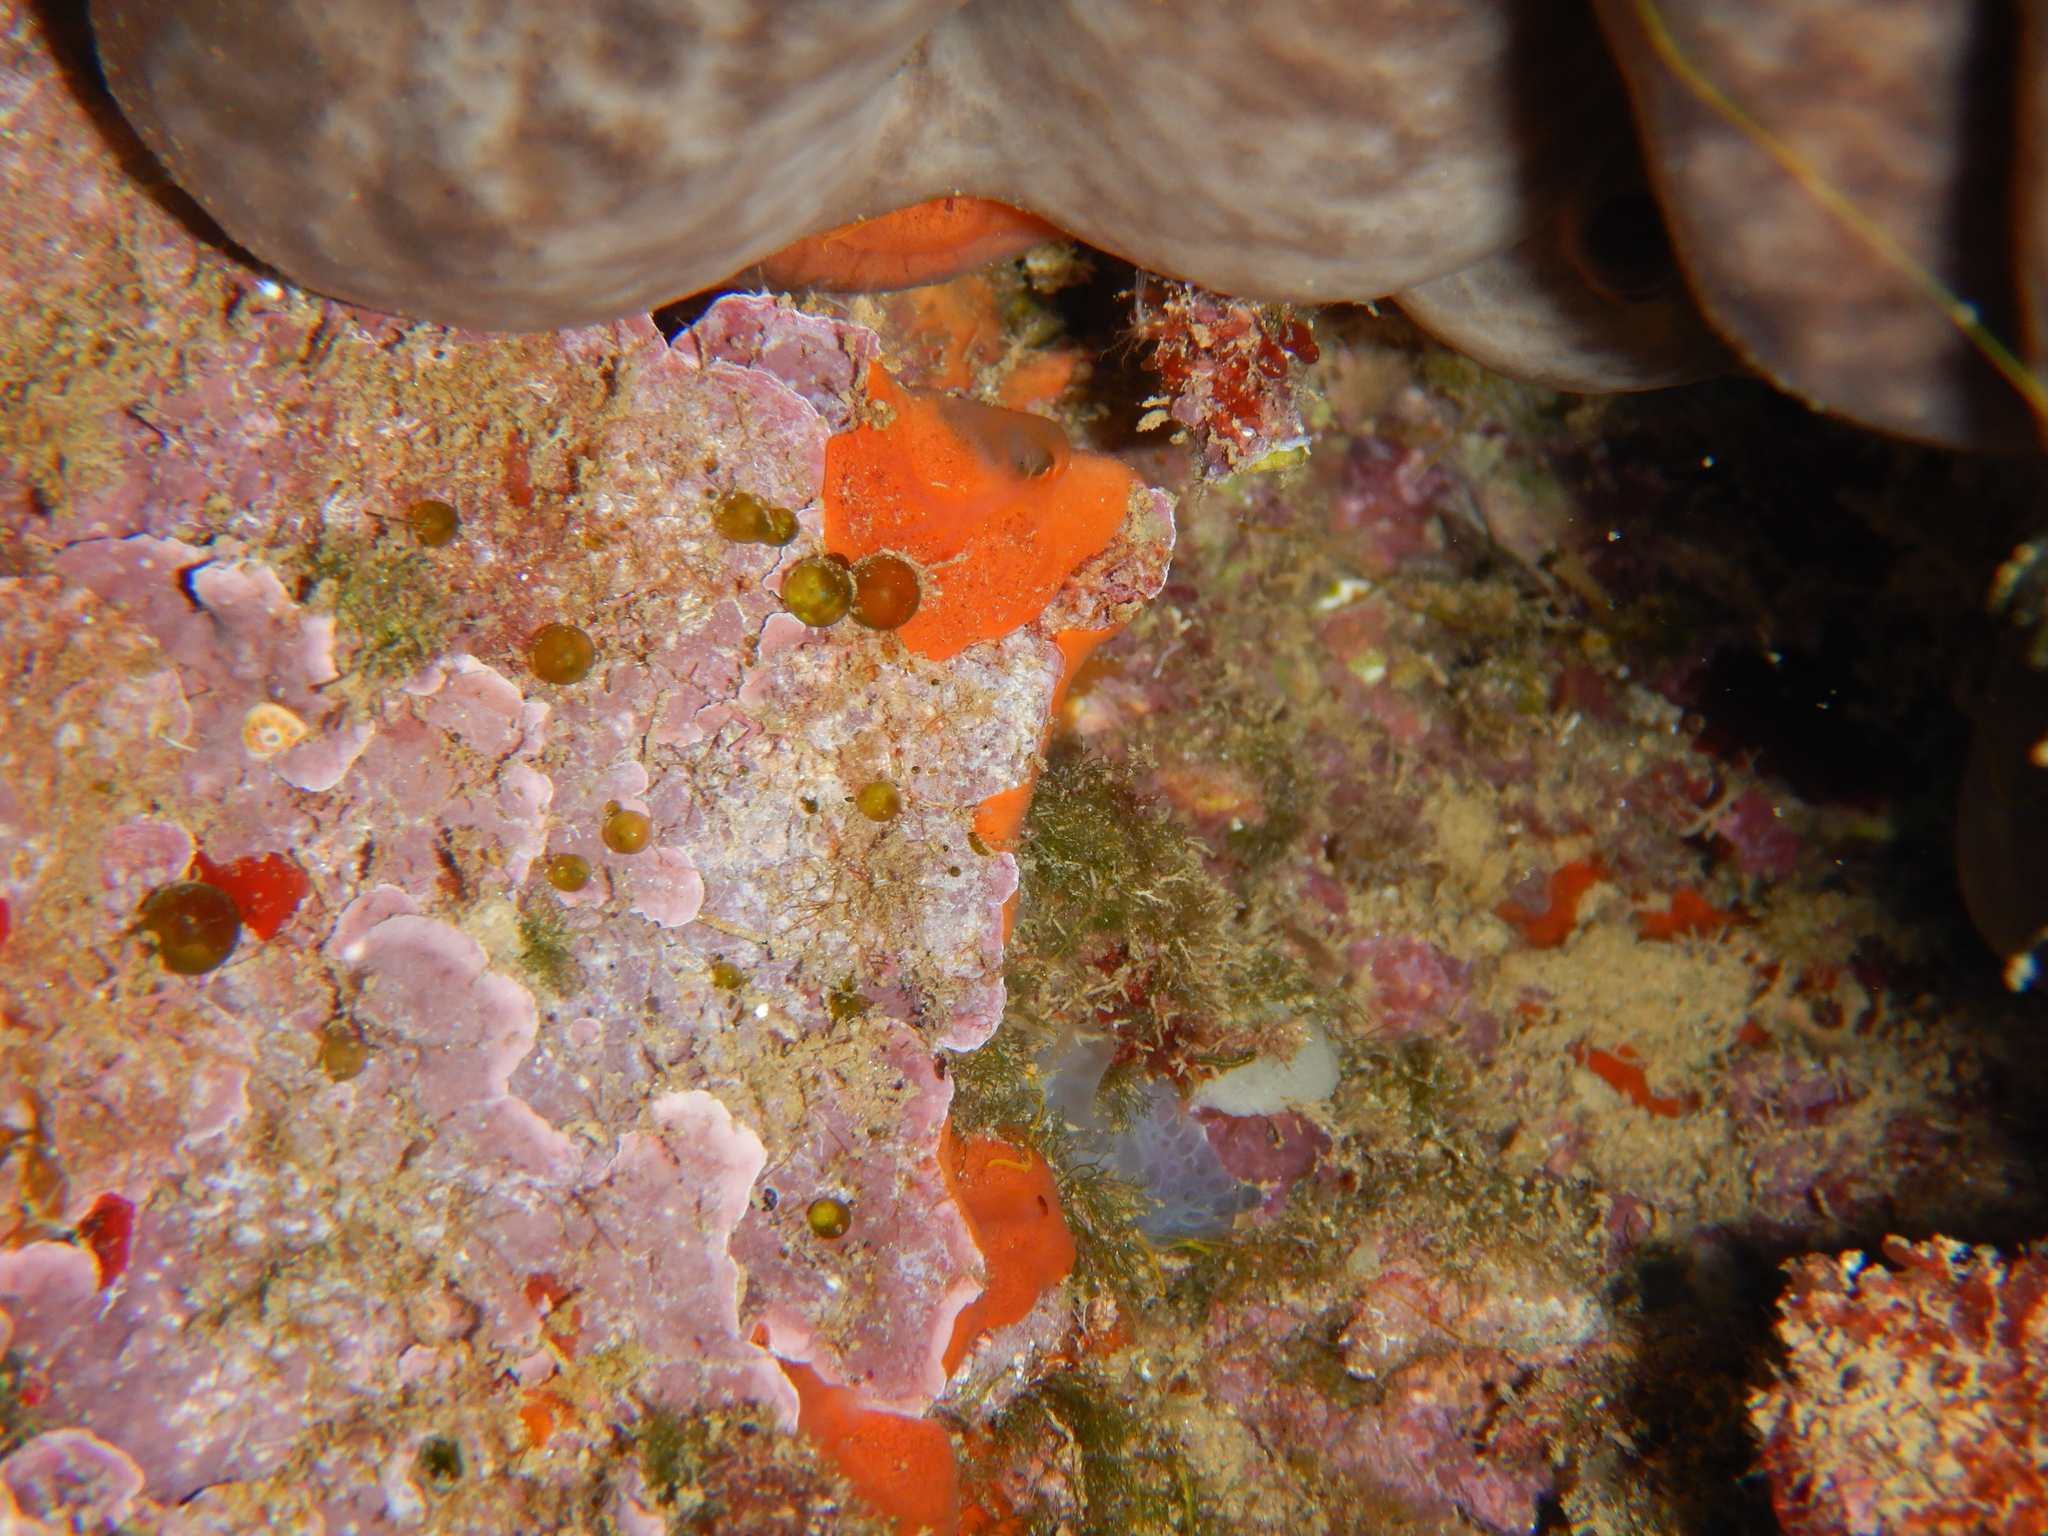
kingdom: Plantae
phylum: Chlorophyta
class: Ulvophyceae
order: Bryopsidales
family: Derbesiaceae
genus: Derbesia
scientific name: Derbesia tenuissima
